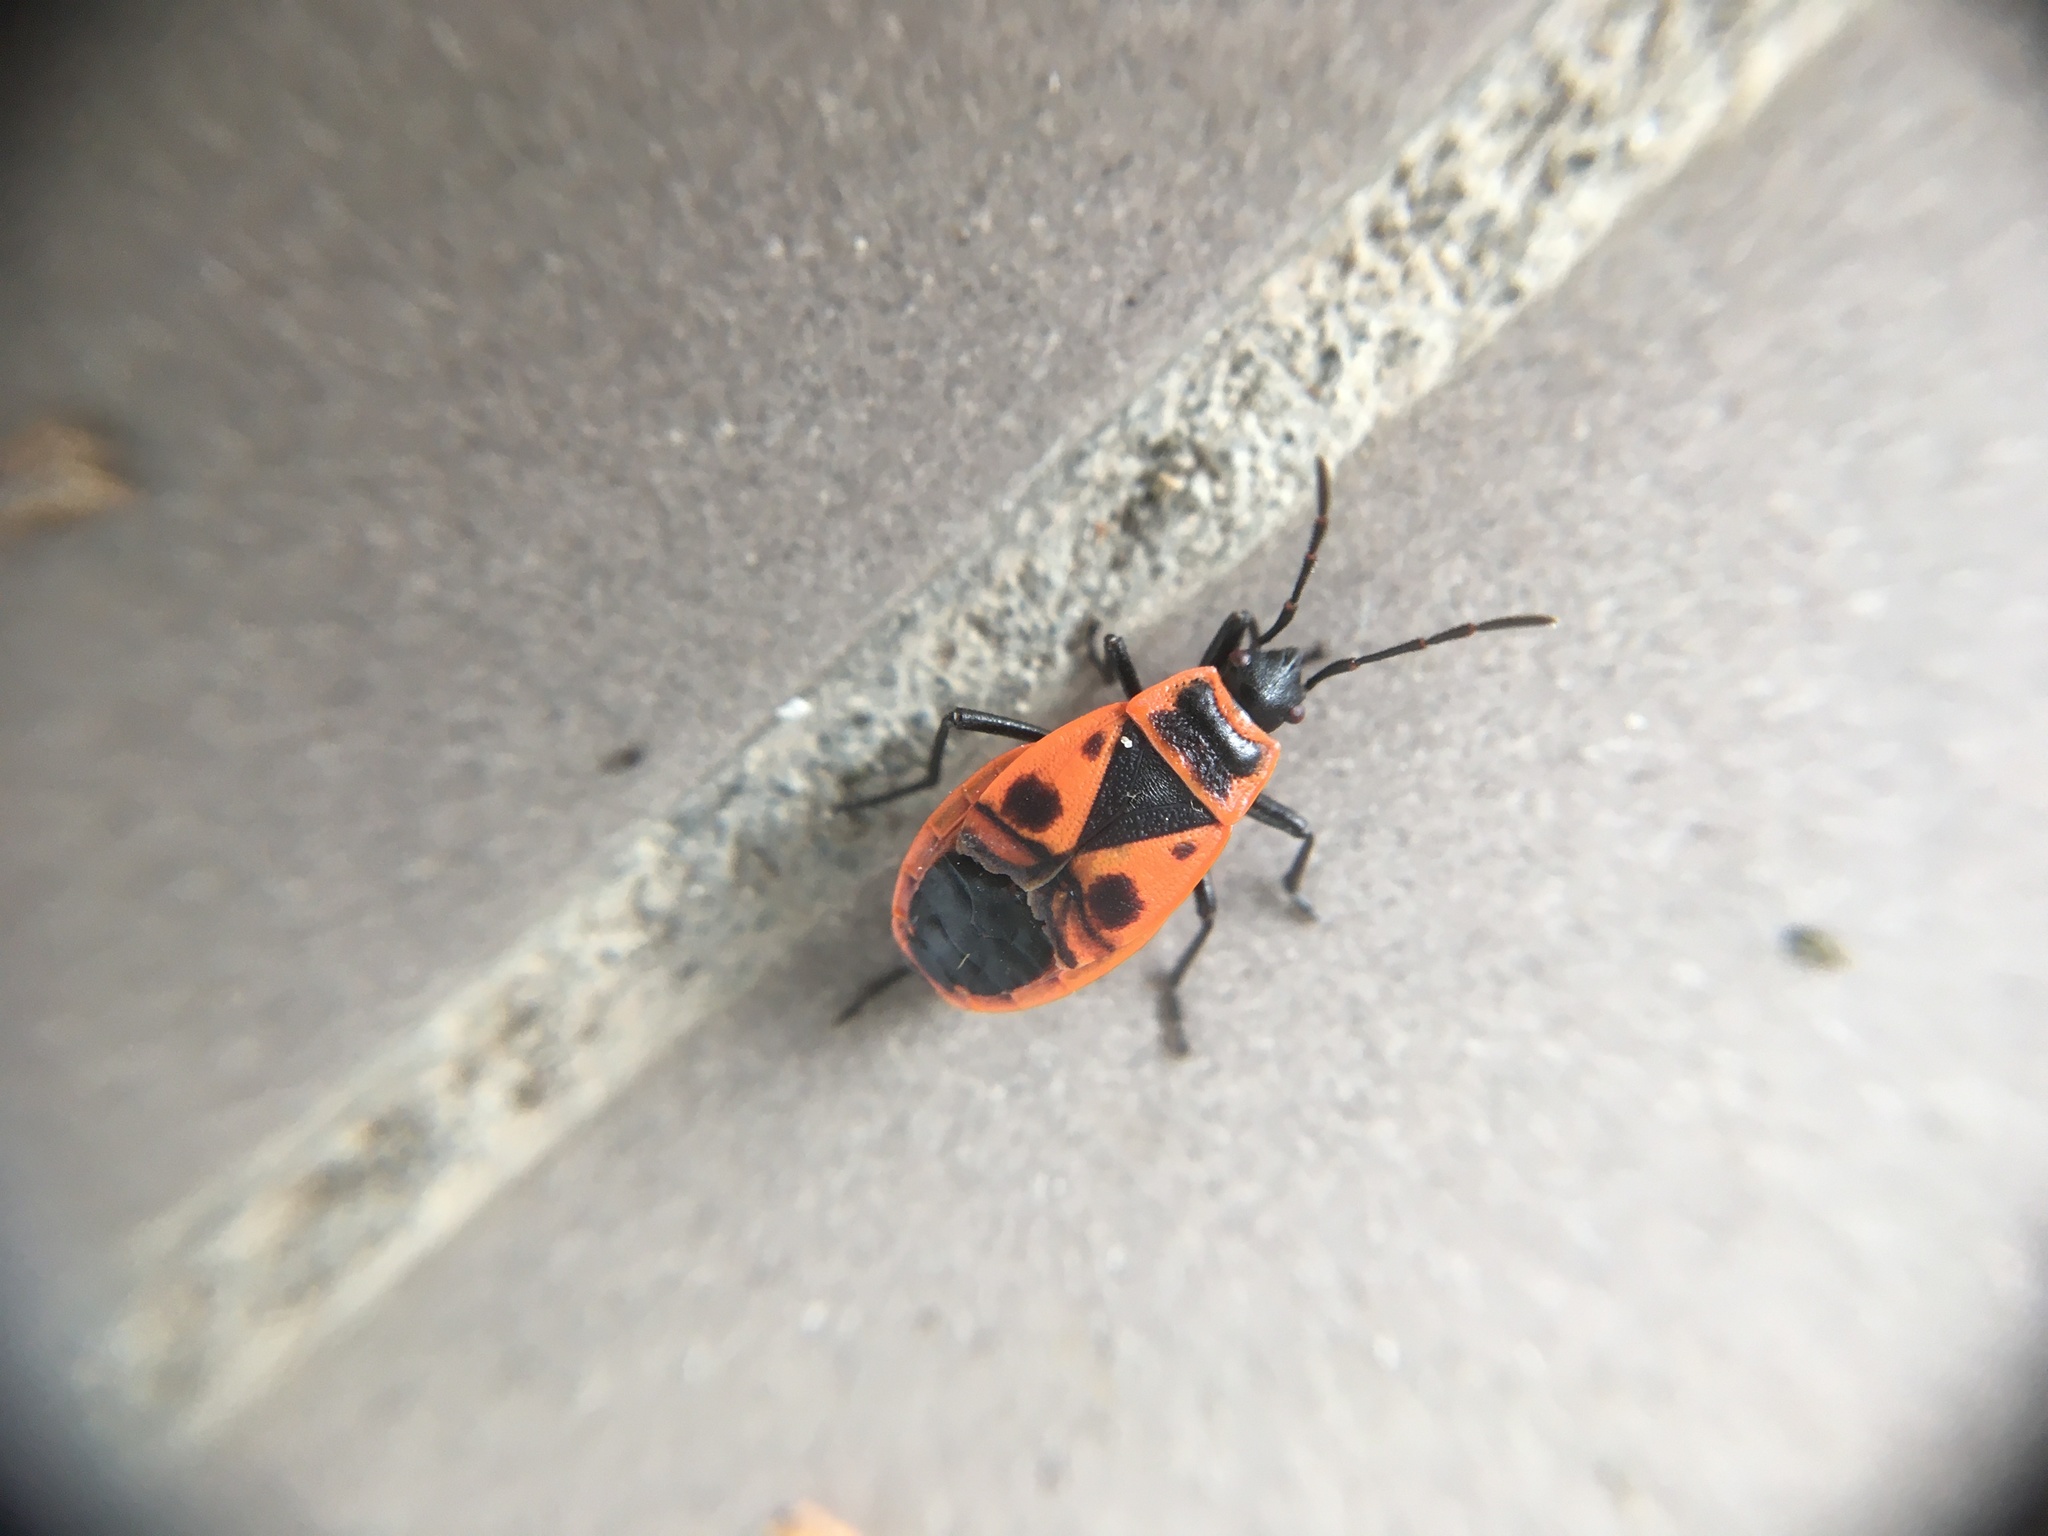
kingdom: Animalia
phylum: Arthropoda
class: Insecta
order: Hemiptera
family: Pyrrhocoridae
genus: Pyrrhocoris
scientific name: Pyrrhocoris apterus
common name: Firebug
